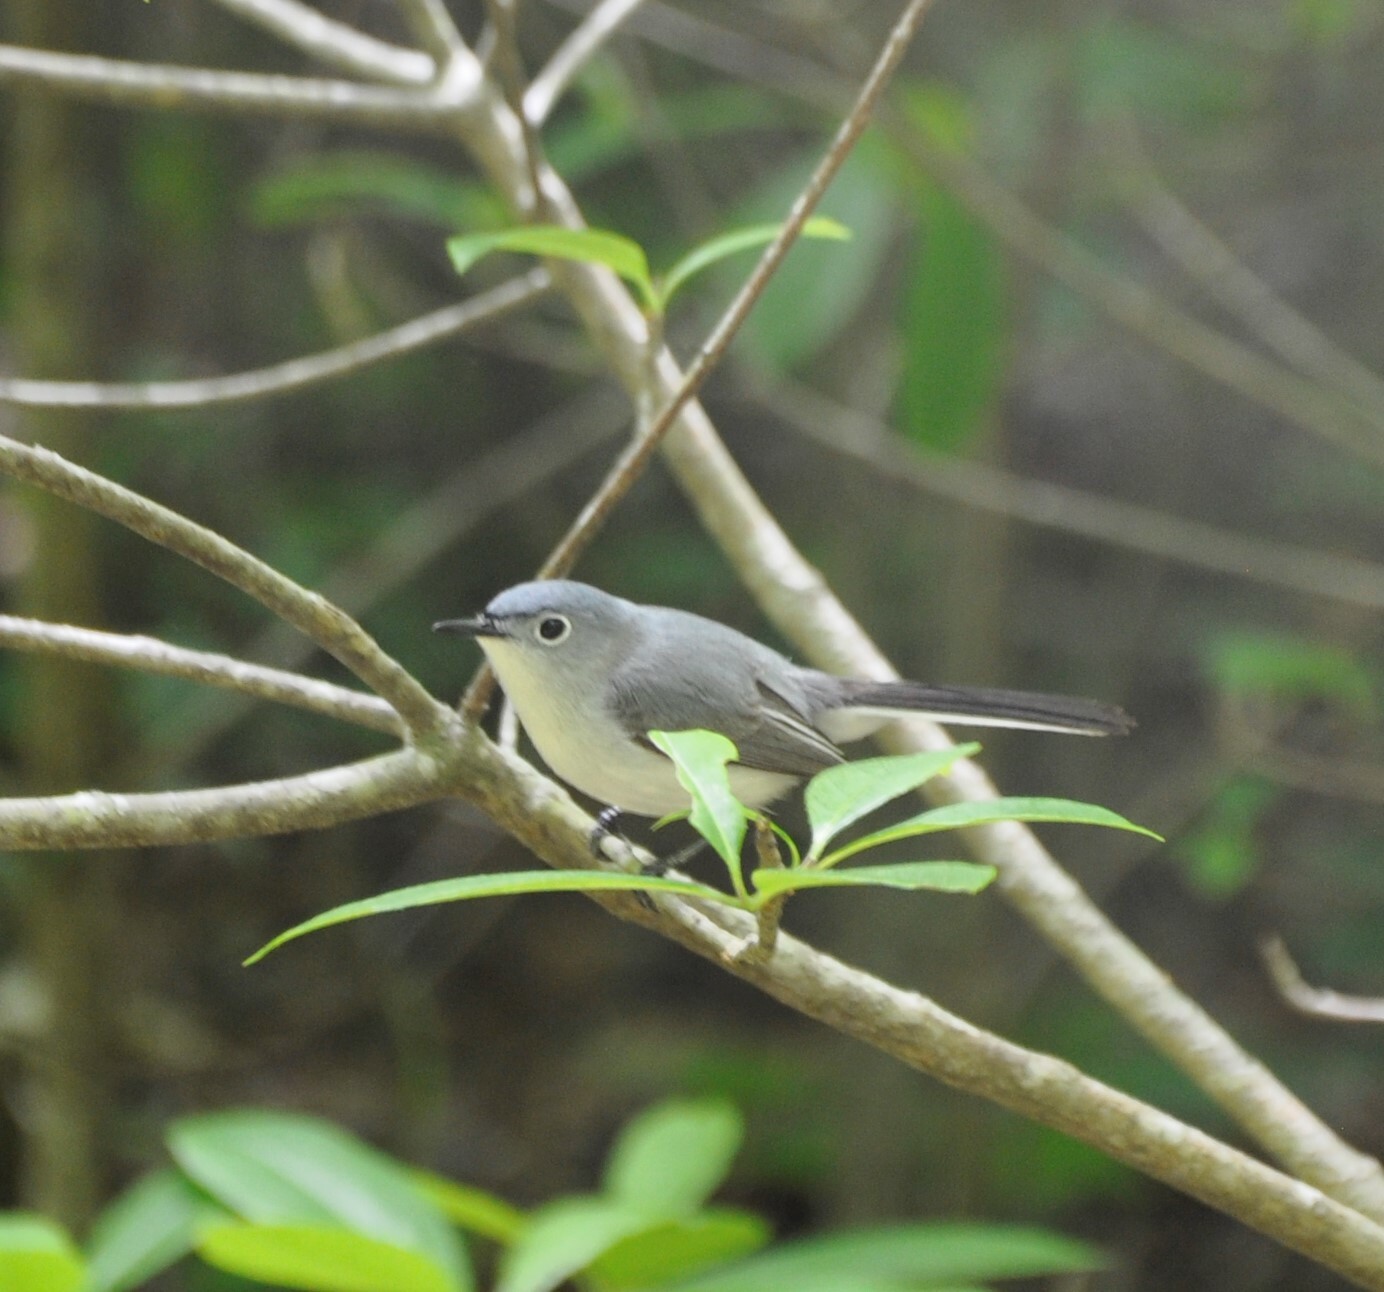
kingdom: Animalia
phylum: Chordata
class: Aves
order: Passeriformes
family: Polioptilidae
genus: Polioptila
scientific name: Polioptila caerulea
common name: Blue-gray gnatcatcher
